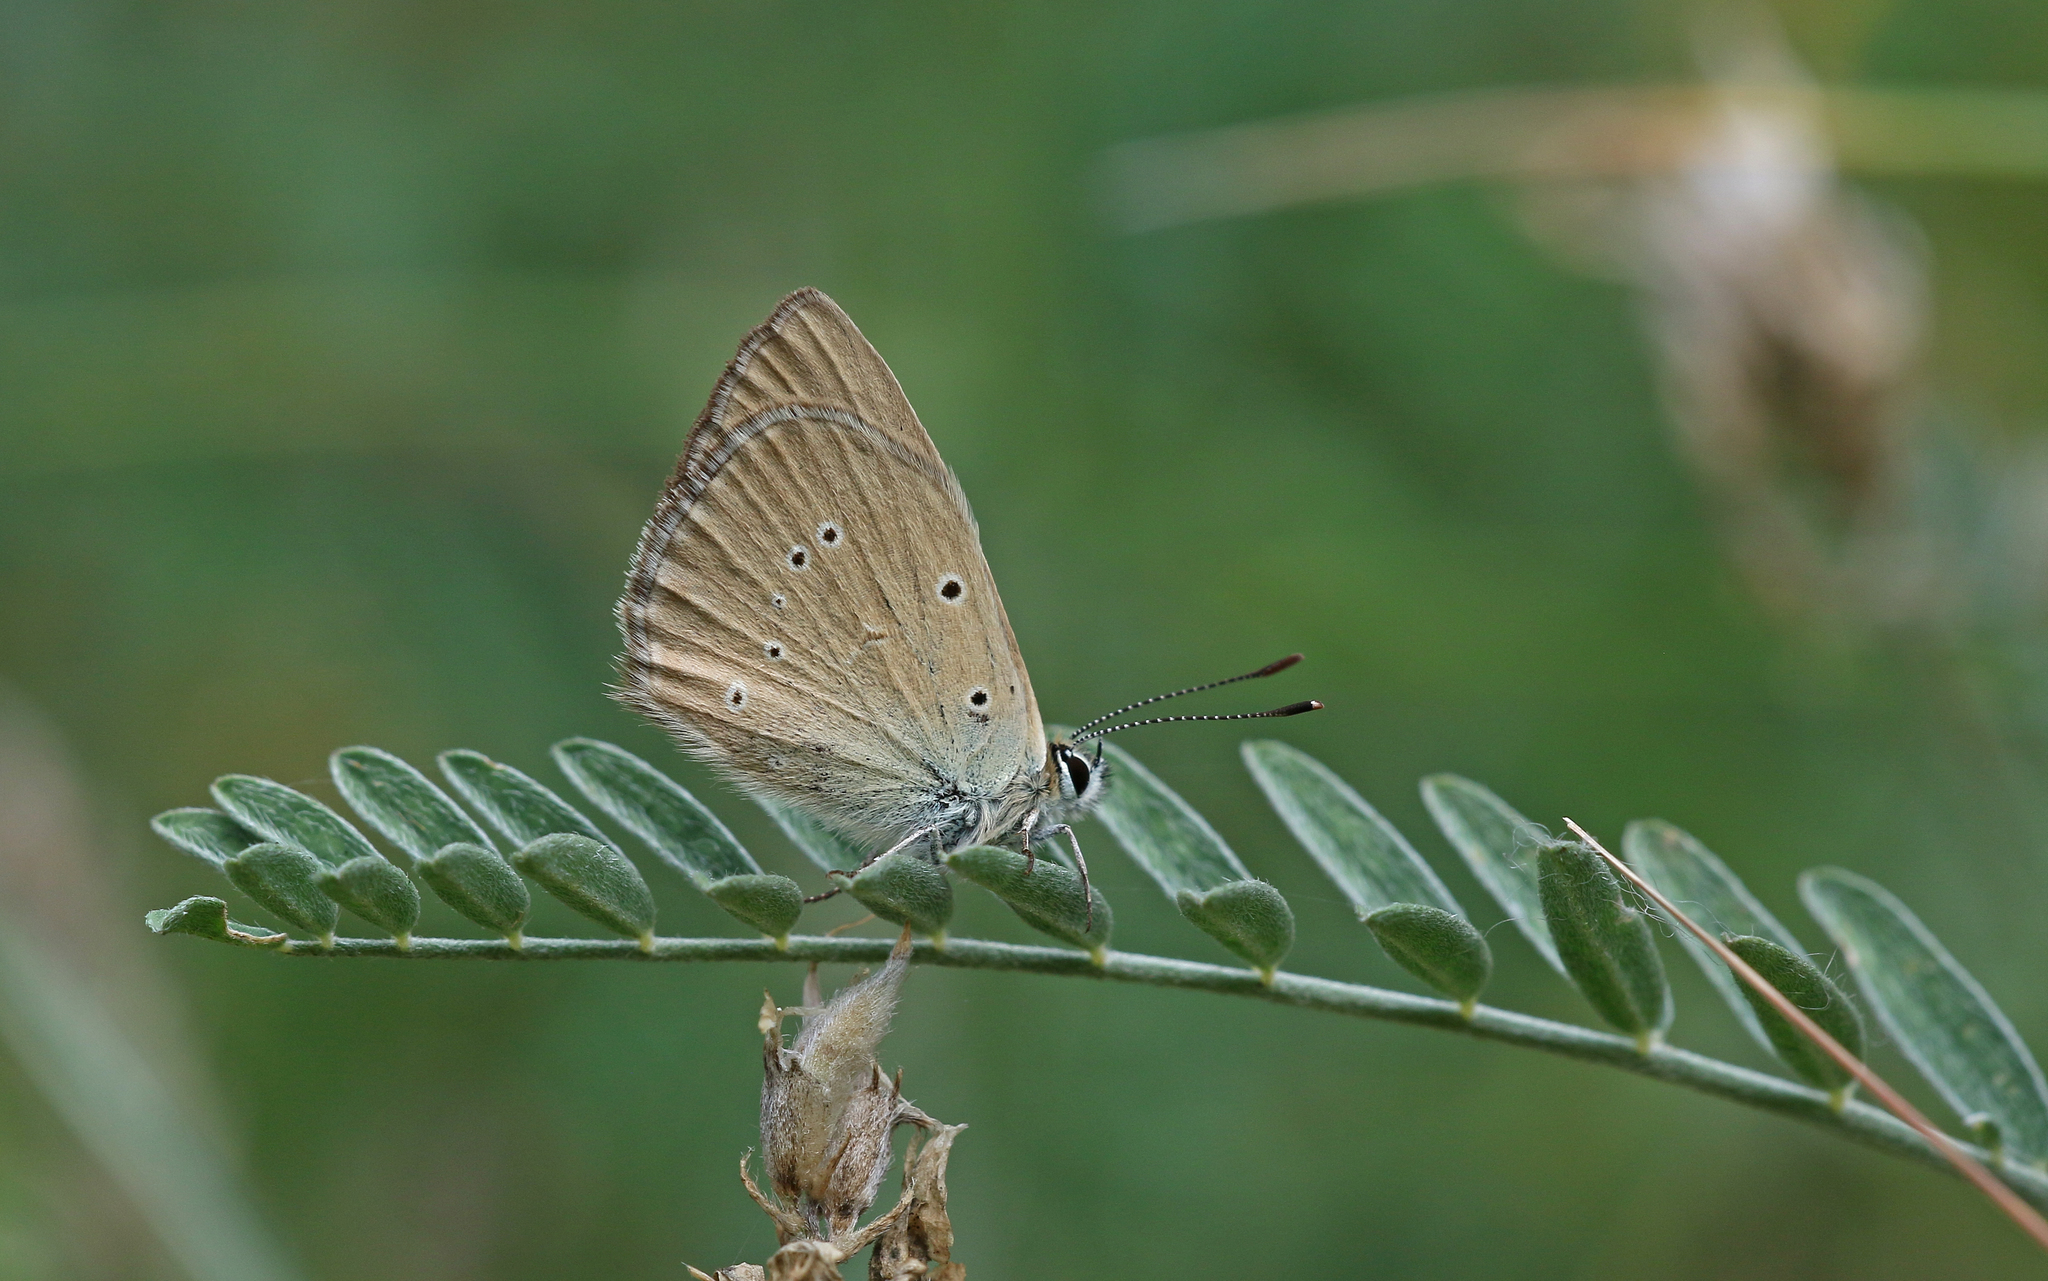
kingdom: Animalia
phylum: Arthropoda
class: Insecta
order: Lepidoptera
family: Lycaenidae
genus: Agrodiaetus
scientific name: Agrodiaetus humedasae
